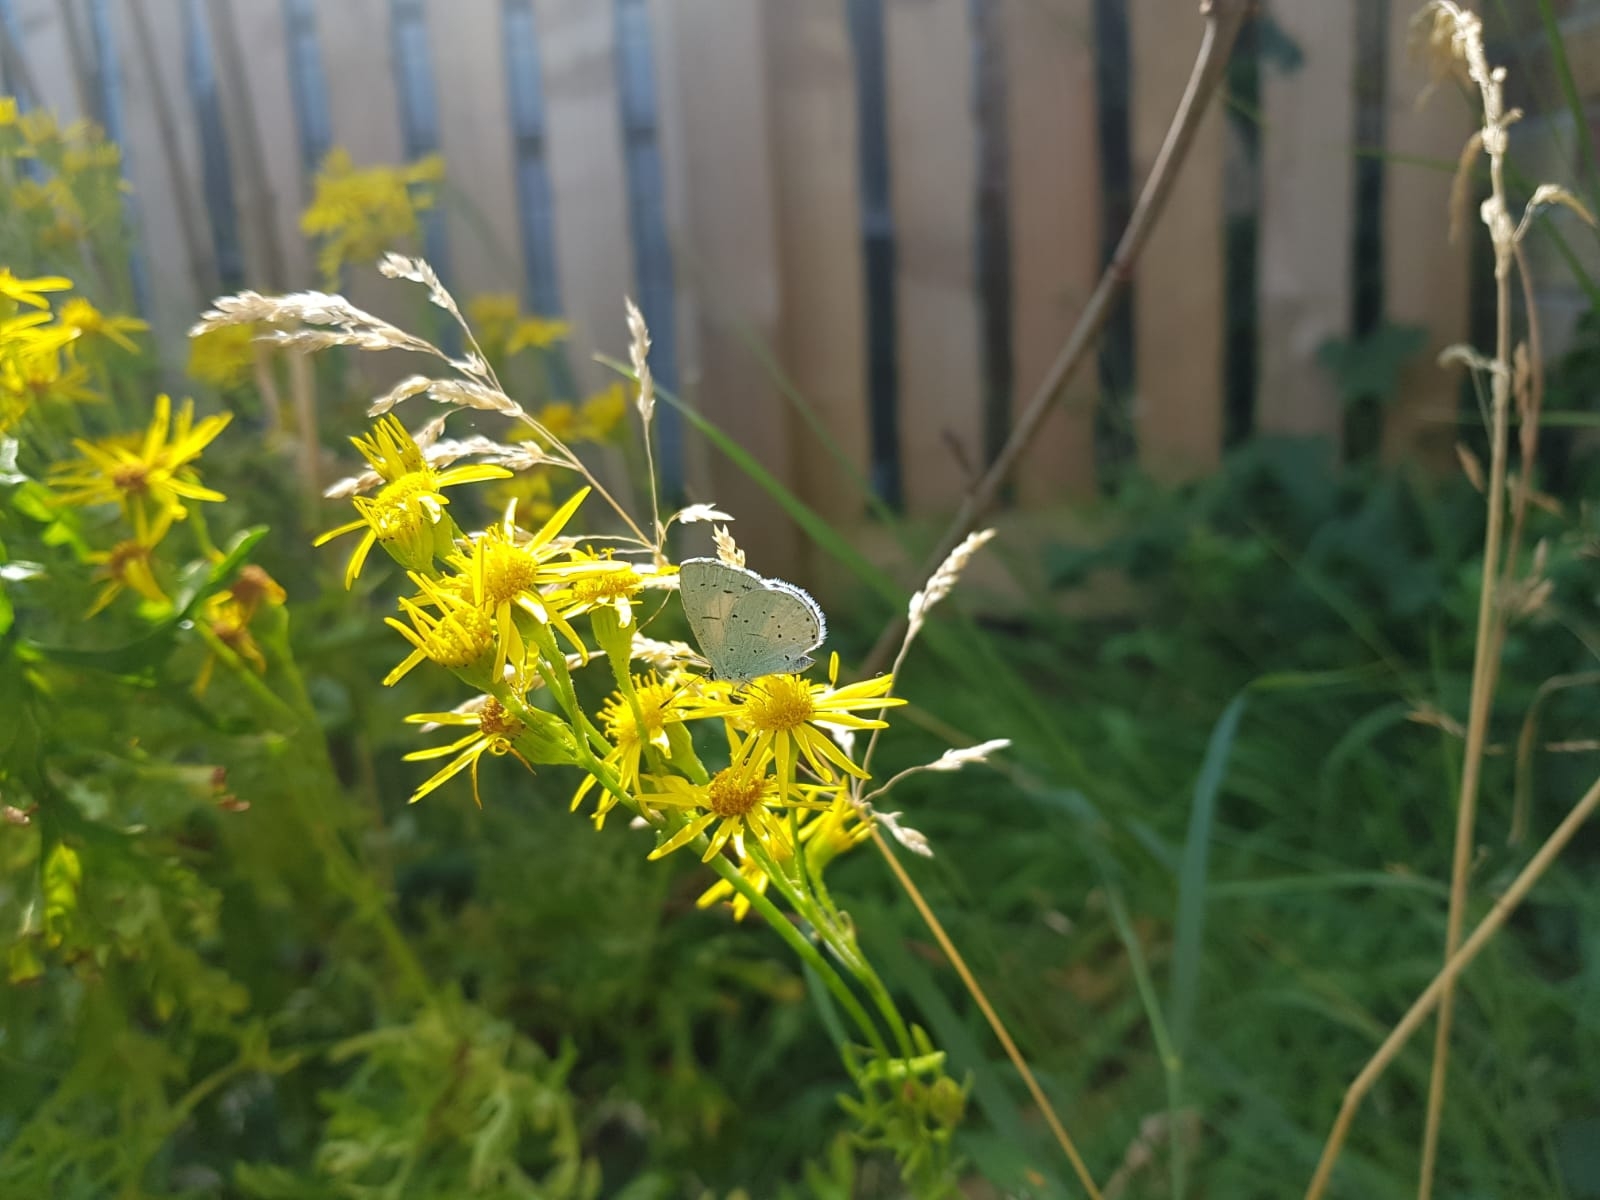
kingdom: Animalia
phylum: Arthropoda
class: Insecta
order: Lepidoptera
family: Lycaenidae
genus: Celastrina
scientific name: Celastrina argiolus
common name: Holly blue
